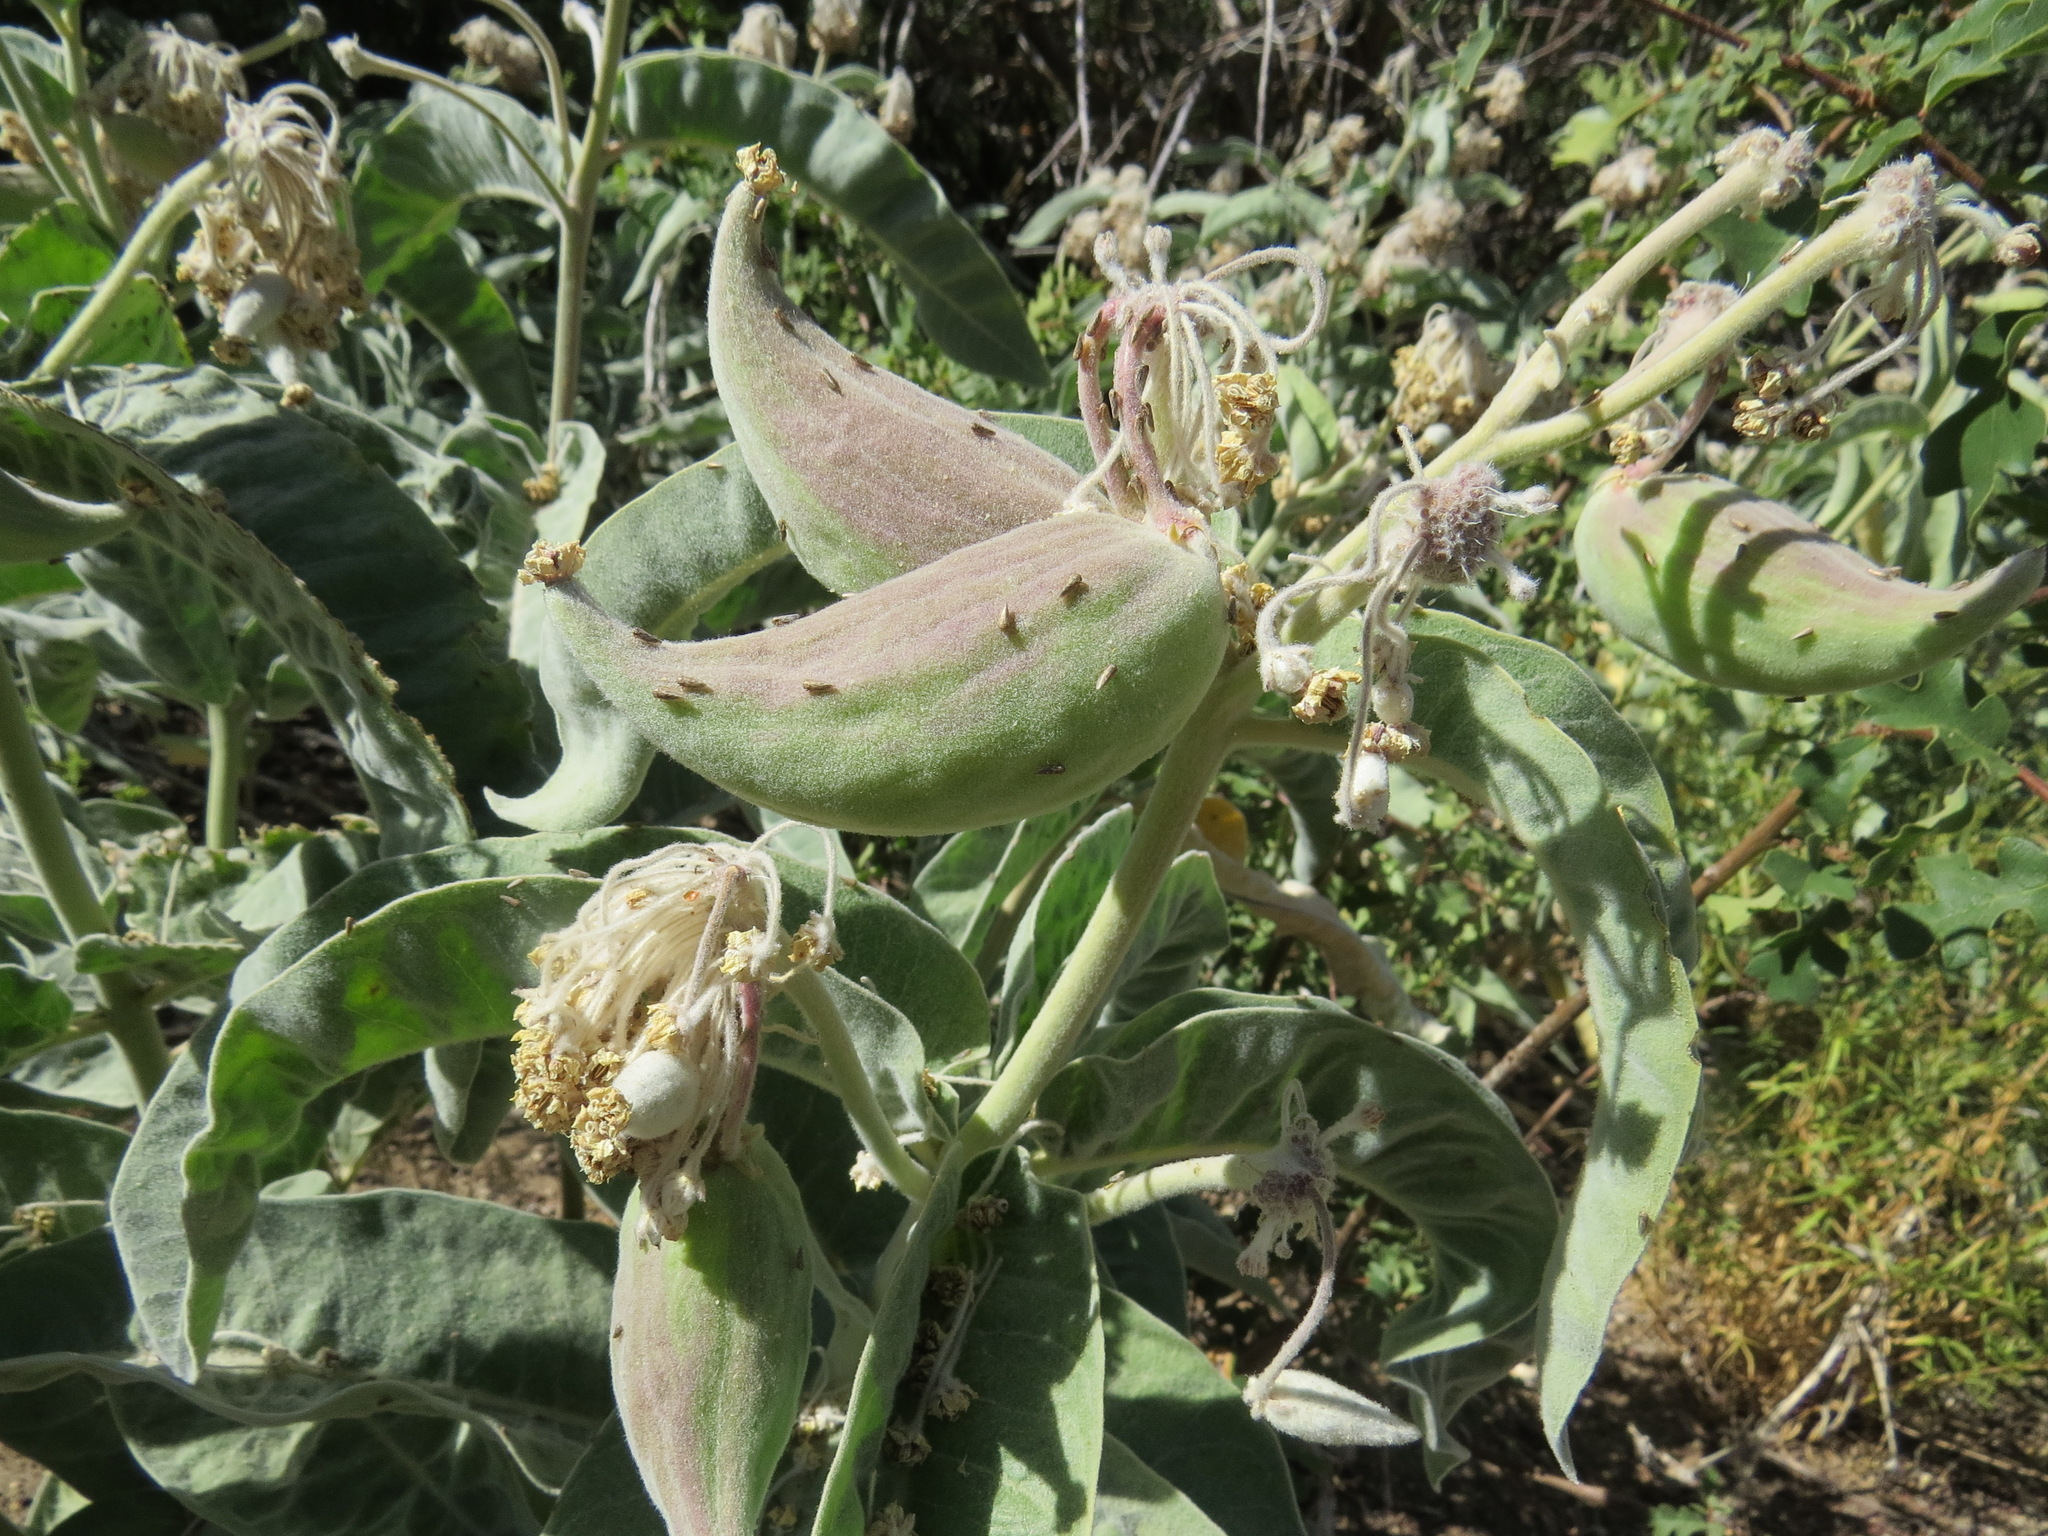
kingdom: Plantae
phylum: Tracheophyta
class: Magnoliopsida
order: Gentianales
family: Apocynaceae
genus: Asclepias
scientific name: Asclepias eriocarpa
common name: Indian milkweed
